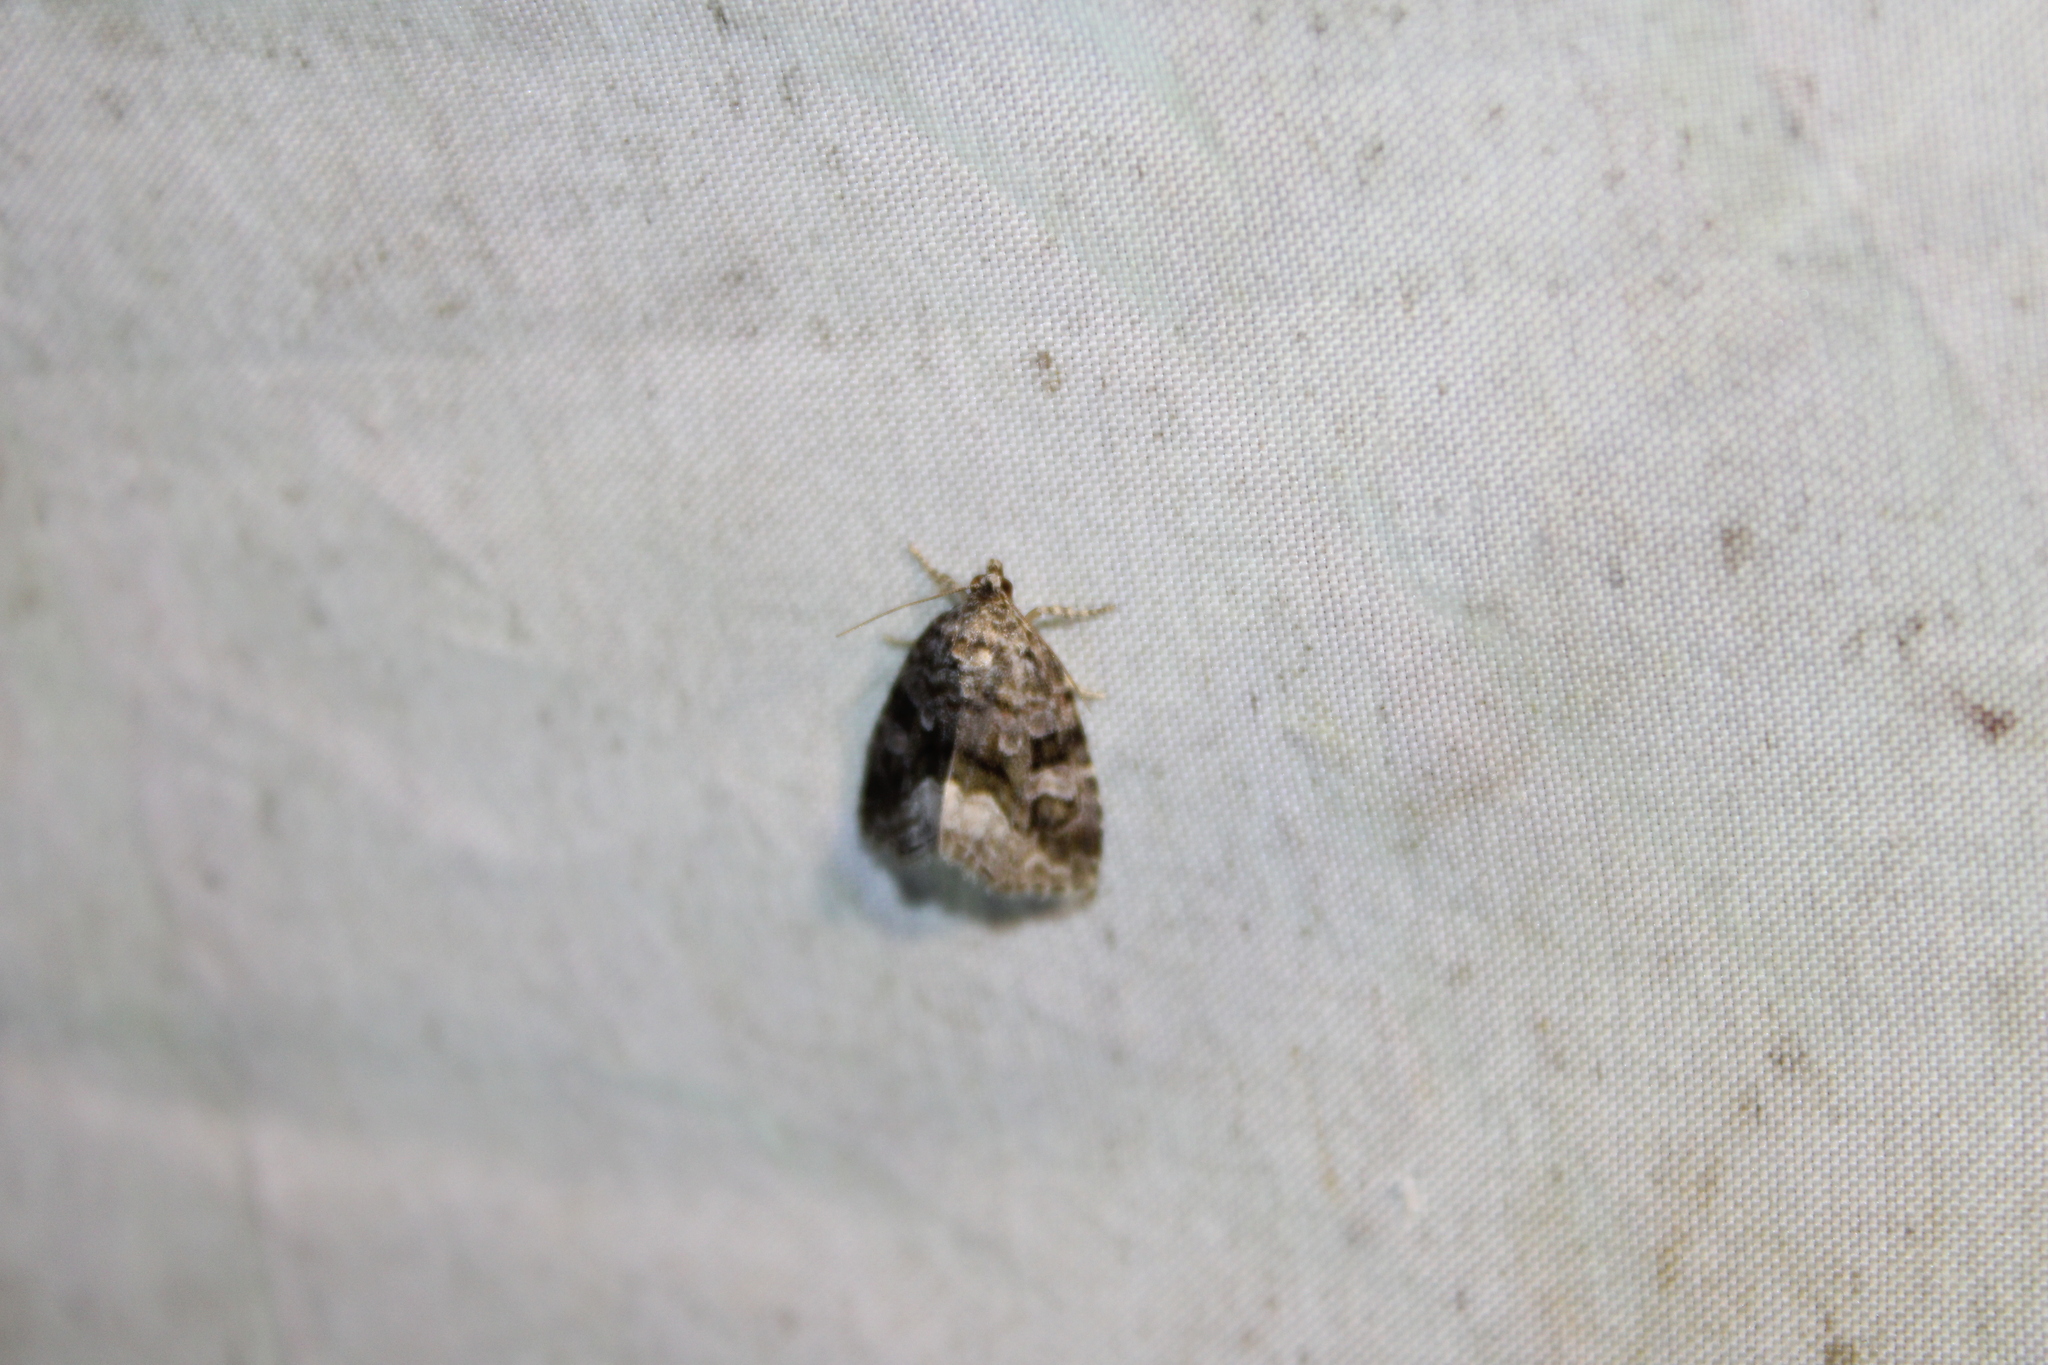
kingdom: Animalia
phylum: Arthropoda
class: Insecta
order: Lepidoptera
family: Noctuidae
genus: Protodeltote
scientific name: Protodeltote muscosula
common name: Large mossy glyph
